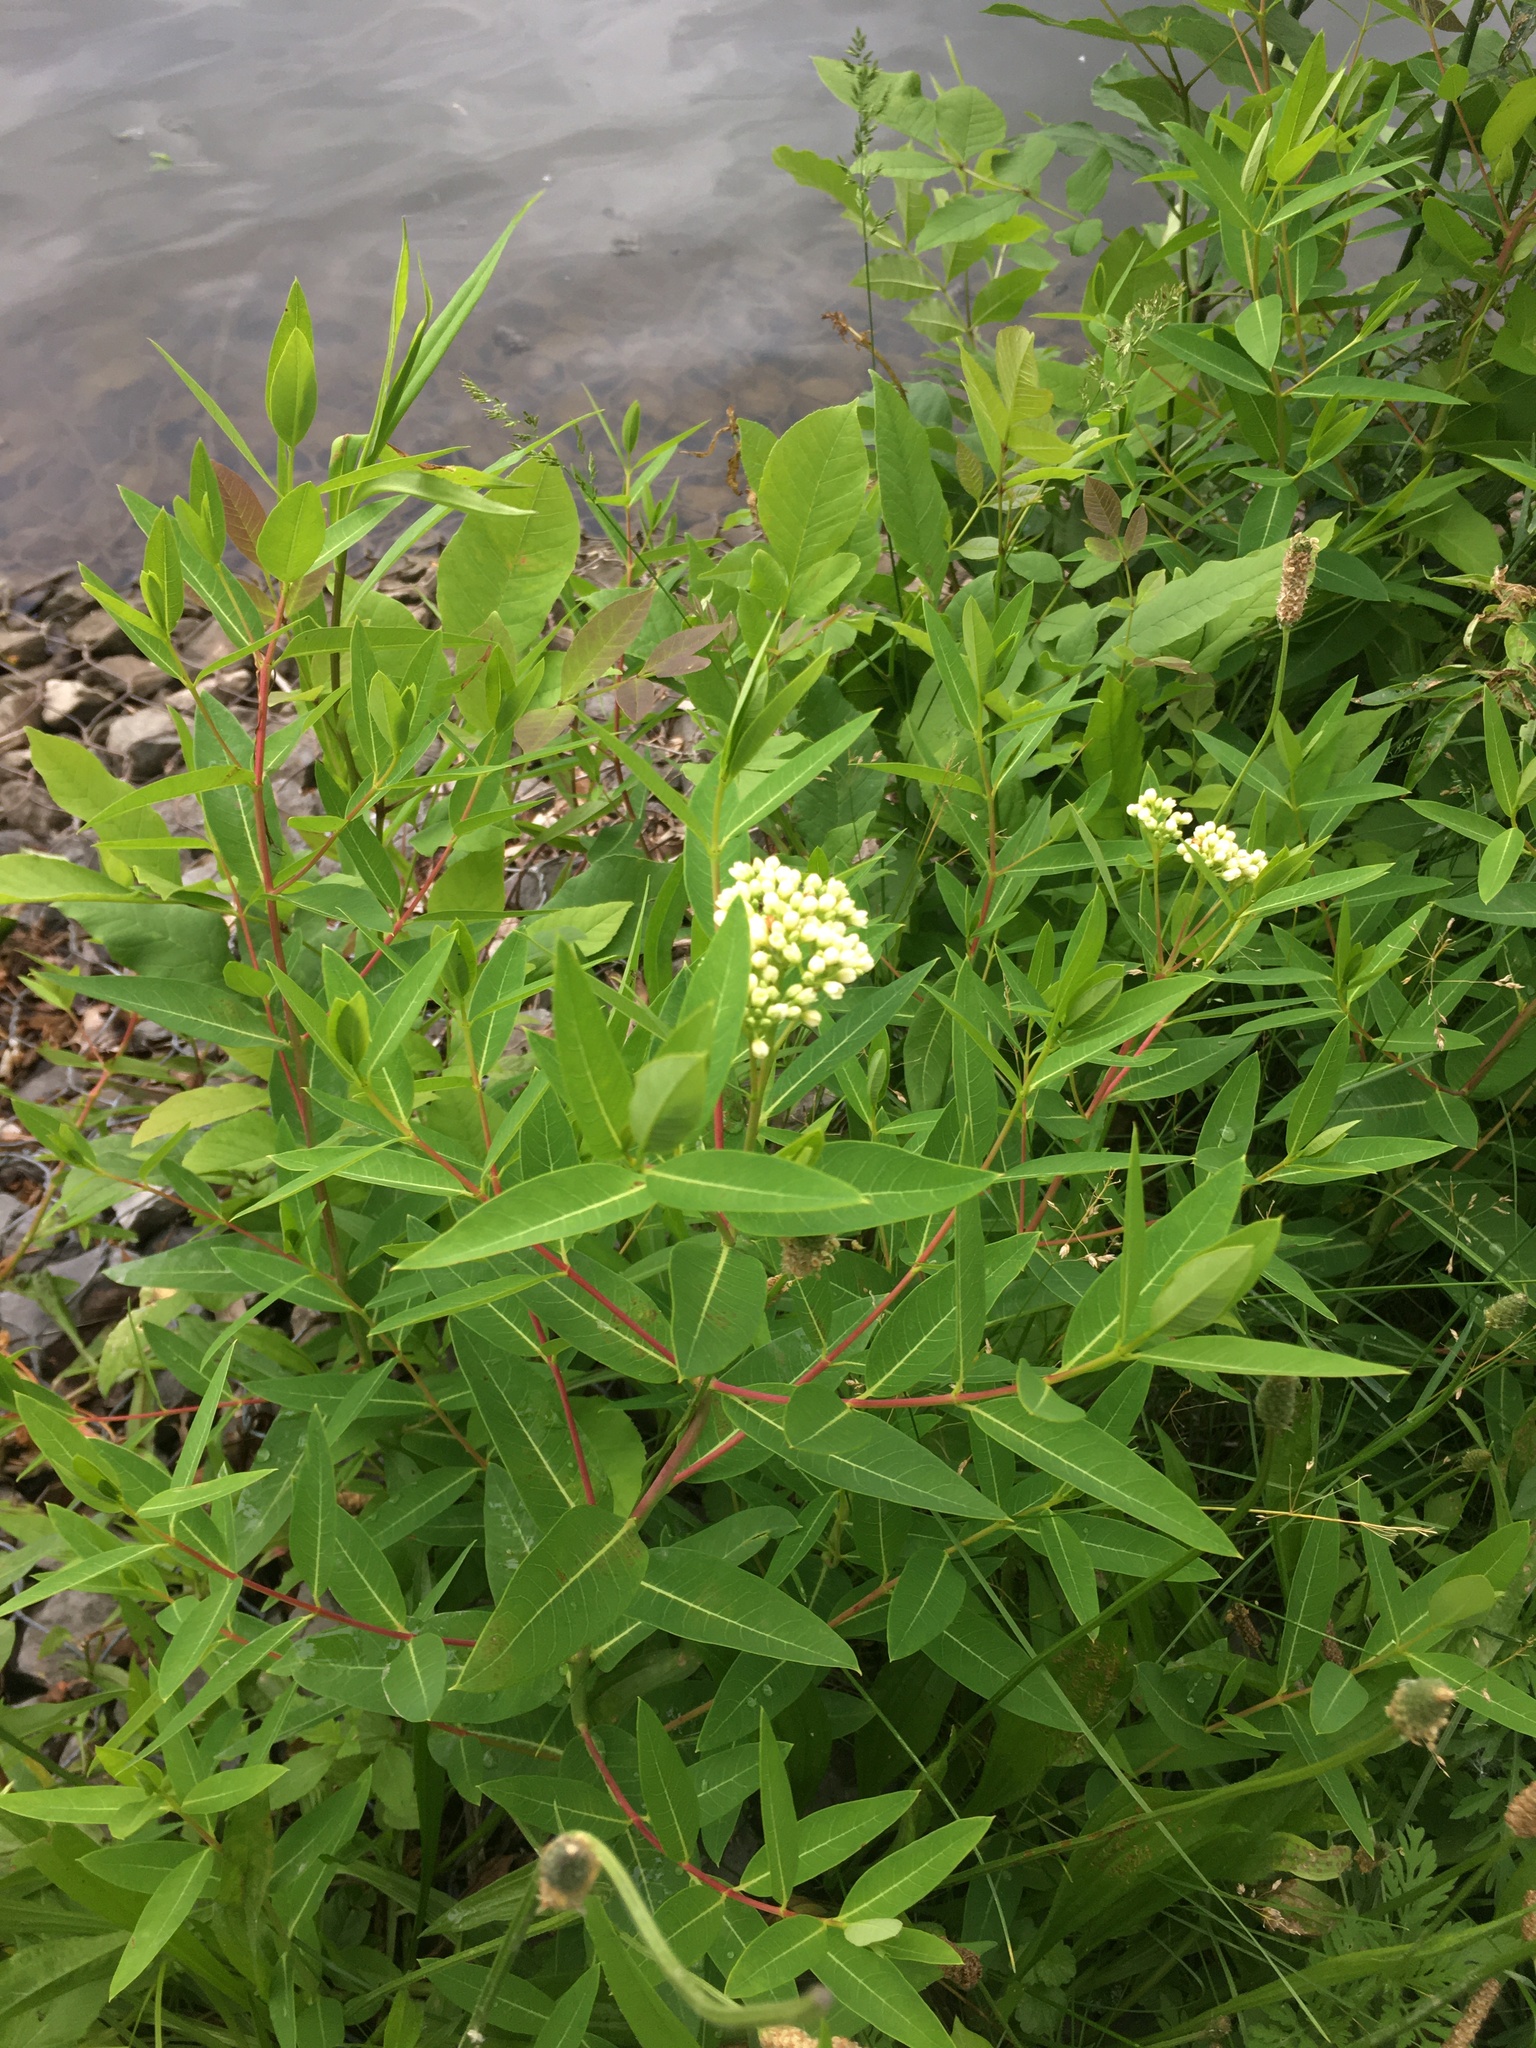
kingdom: Plantae
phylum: Tracheophyta
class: Magnoliopsida
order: Gentianales
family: Apocynaceae
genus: Apocynum
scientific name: Apocynum cannabinum
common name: Hemp dogbane
